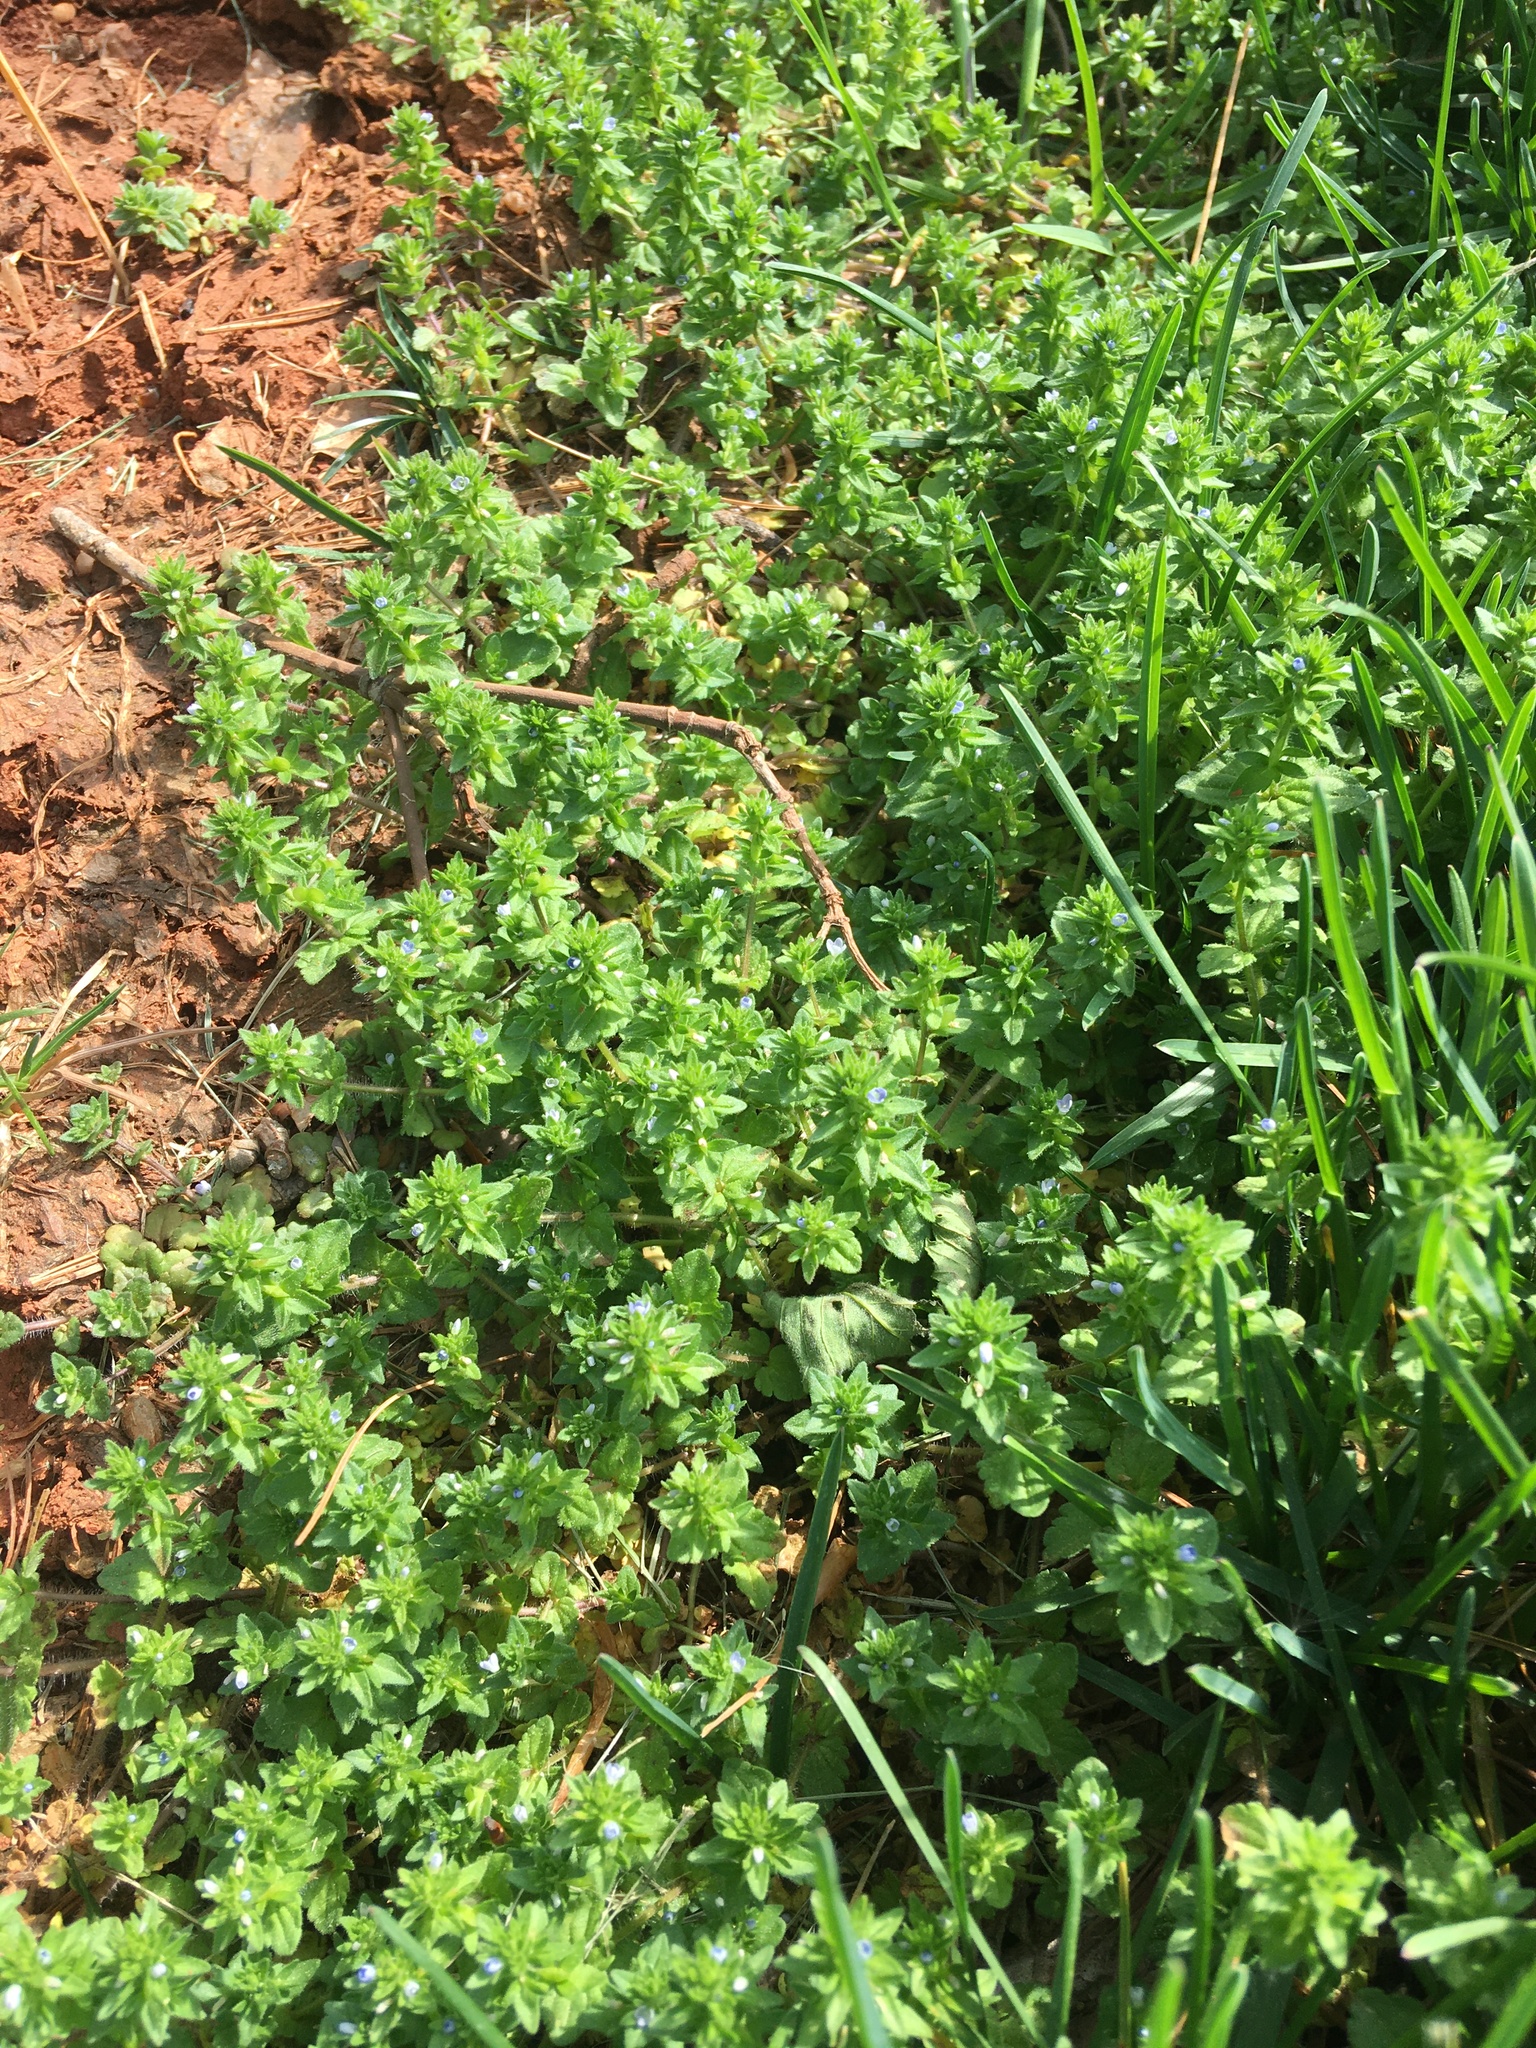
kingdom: Plantae
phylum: Tracheophyta
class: Magnoliopsida
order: Lamiales
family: Plantaginaceae
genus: Veronica
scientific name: Veronica arvensis
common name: Corn speedwell
